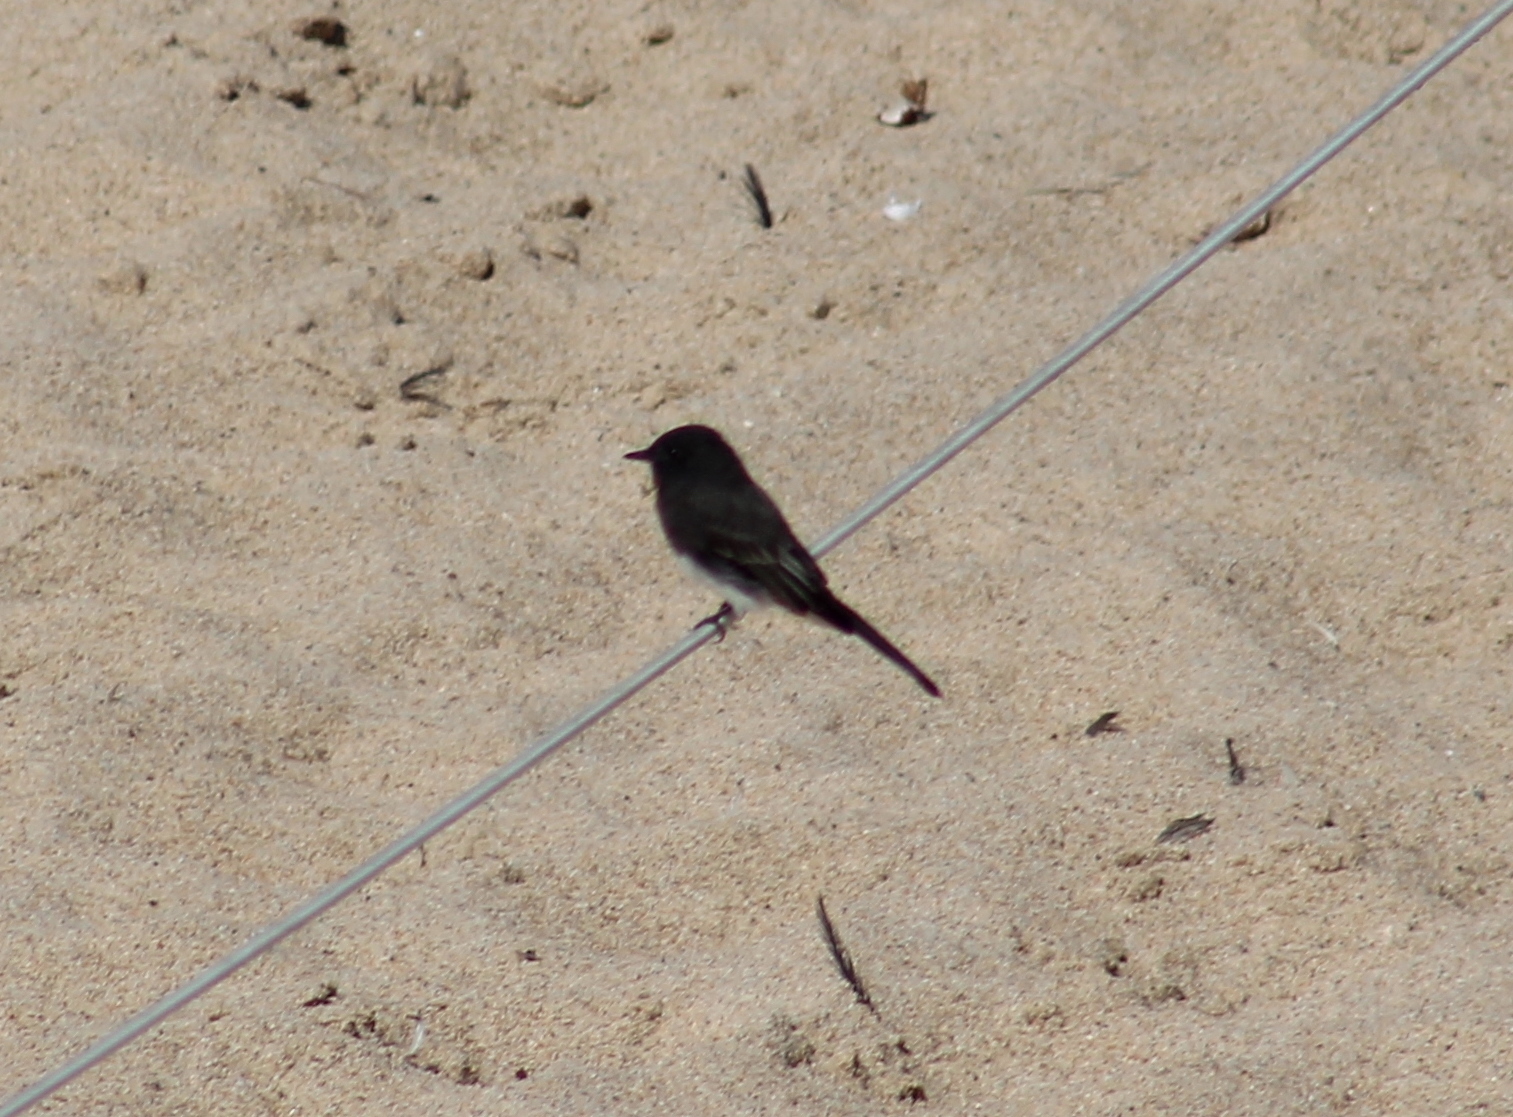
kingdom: Animalia
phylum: Chordata
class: Aves
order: Passeriformes
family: Tyrannidae
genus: Sayornis
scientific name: Sayornis nigricans
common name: Black phoebe
